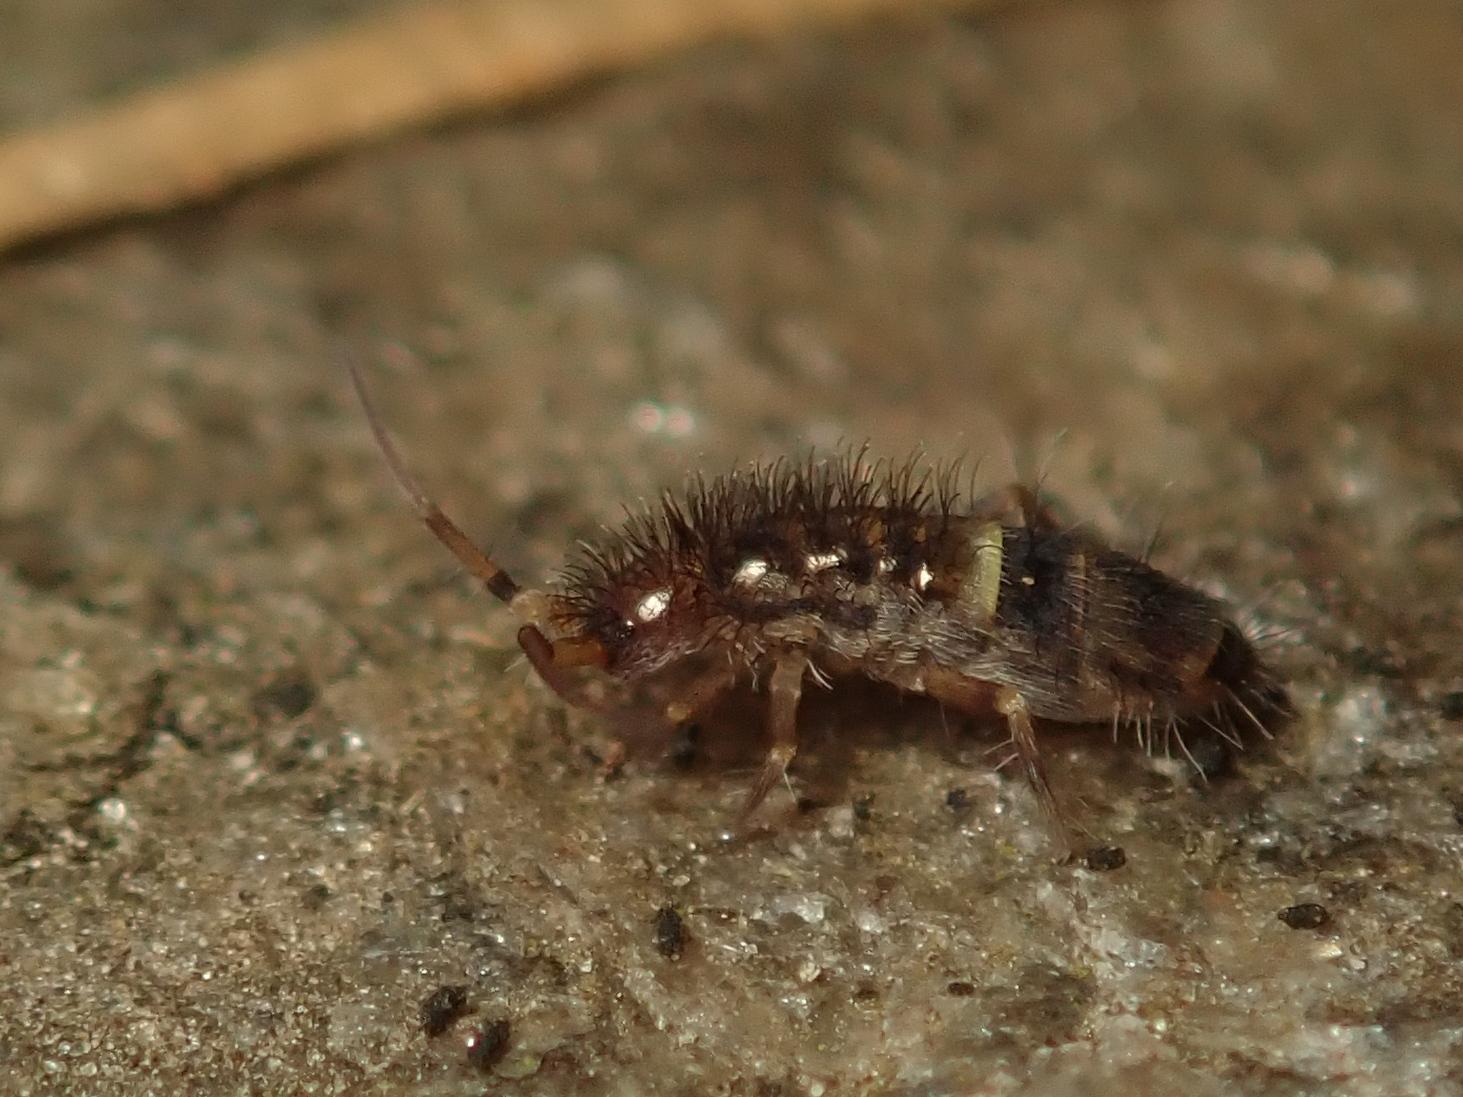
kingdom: Animalia
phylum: Arthropoda
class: Collembola
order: Entomobryomorpha
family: Orchesellidae
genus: Orchesella
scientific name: Orchesella cincta
